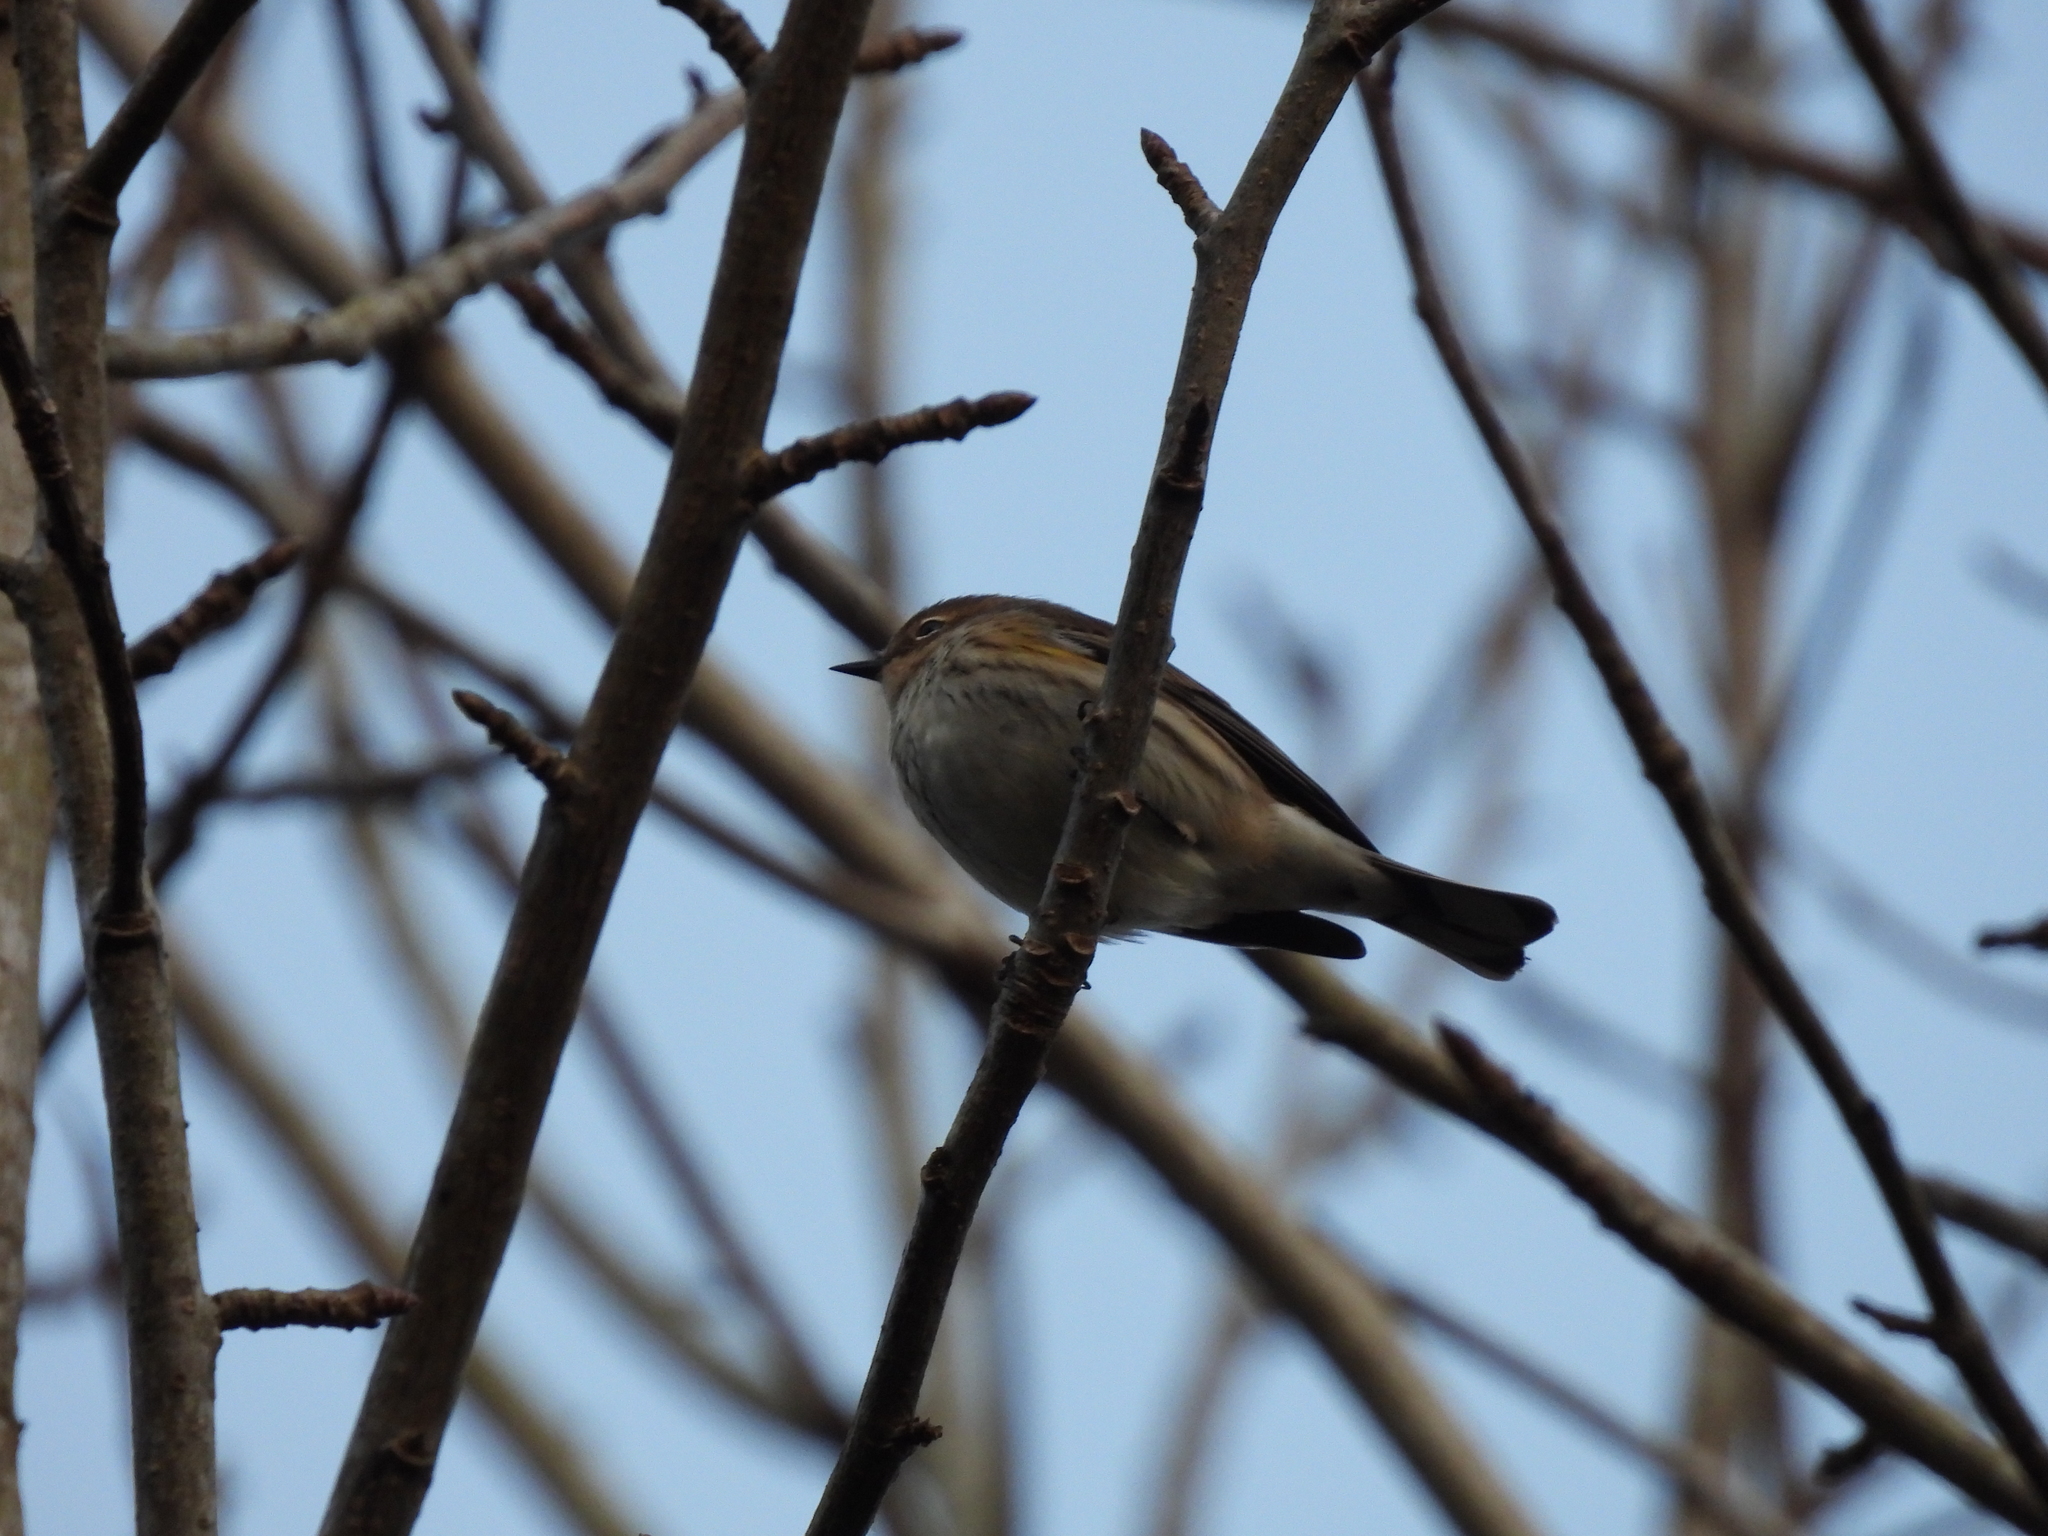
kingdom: Animalia
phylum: Chordata
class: Aves
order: Passeriformes
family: Parulidae
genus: Setophaga
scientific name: Setophaga coronata
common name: Myrtle warbler
